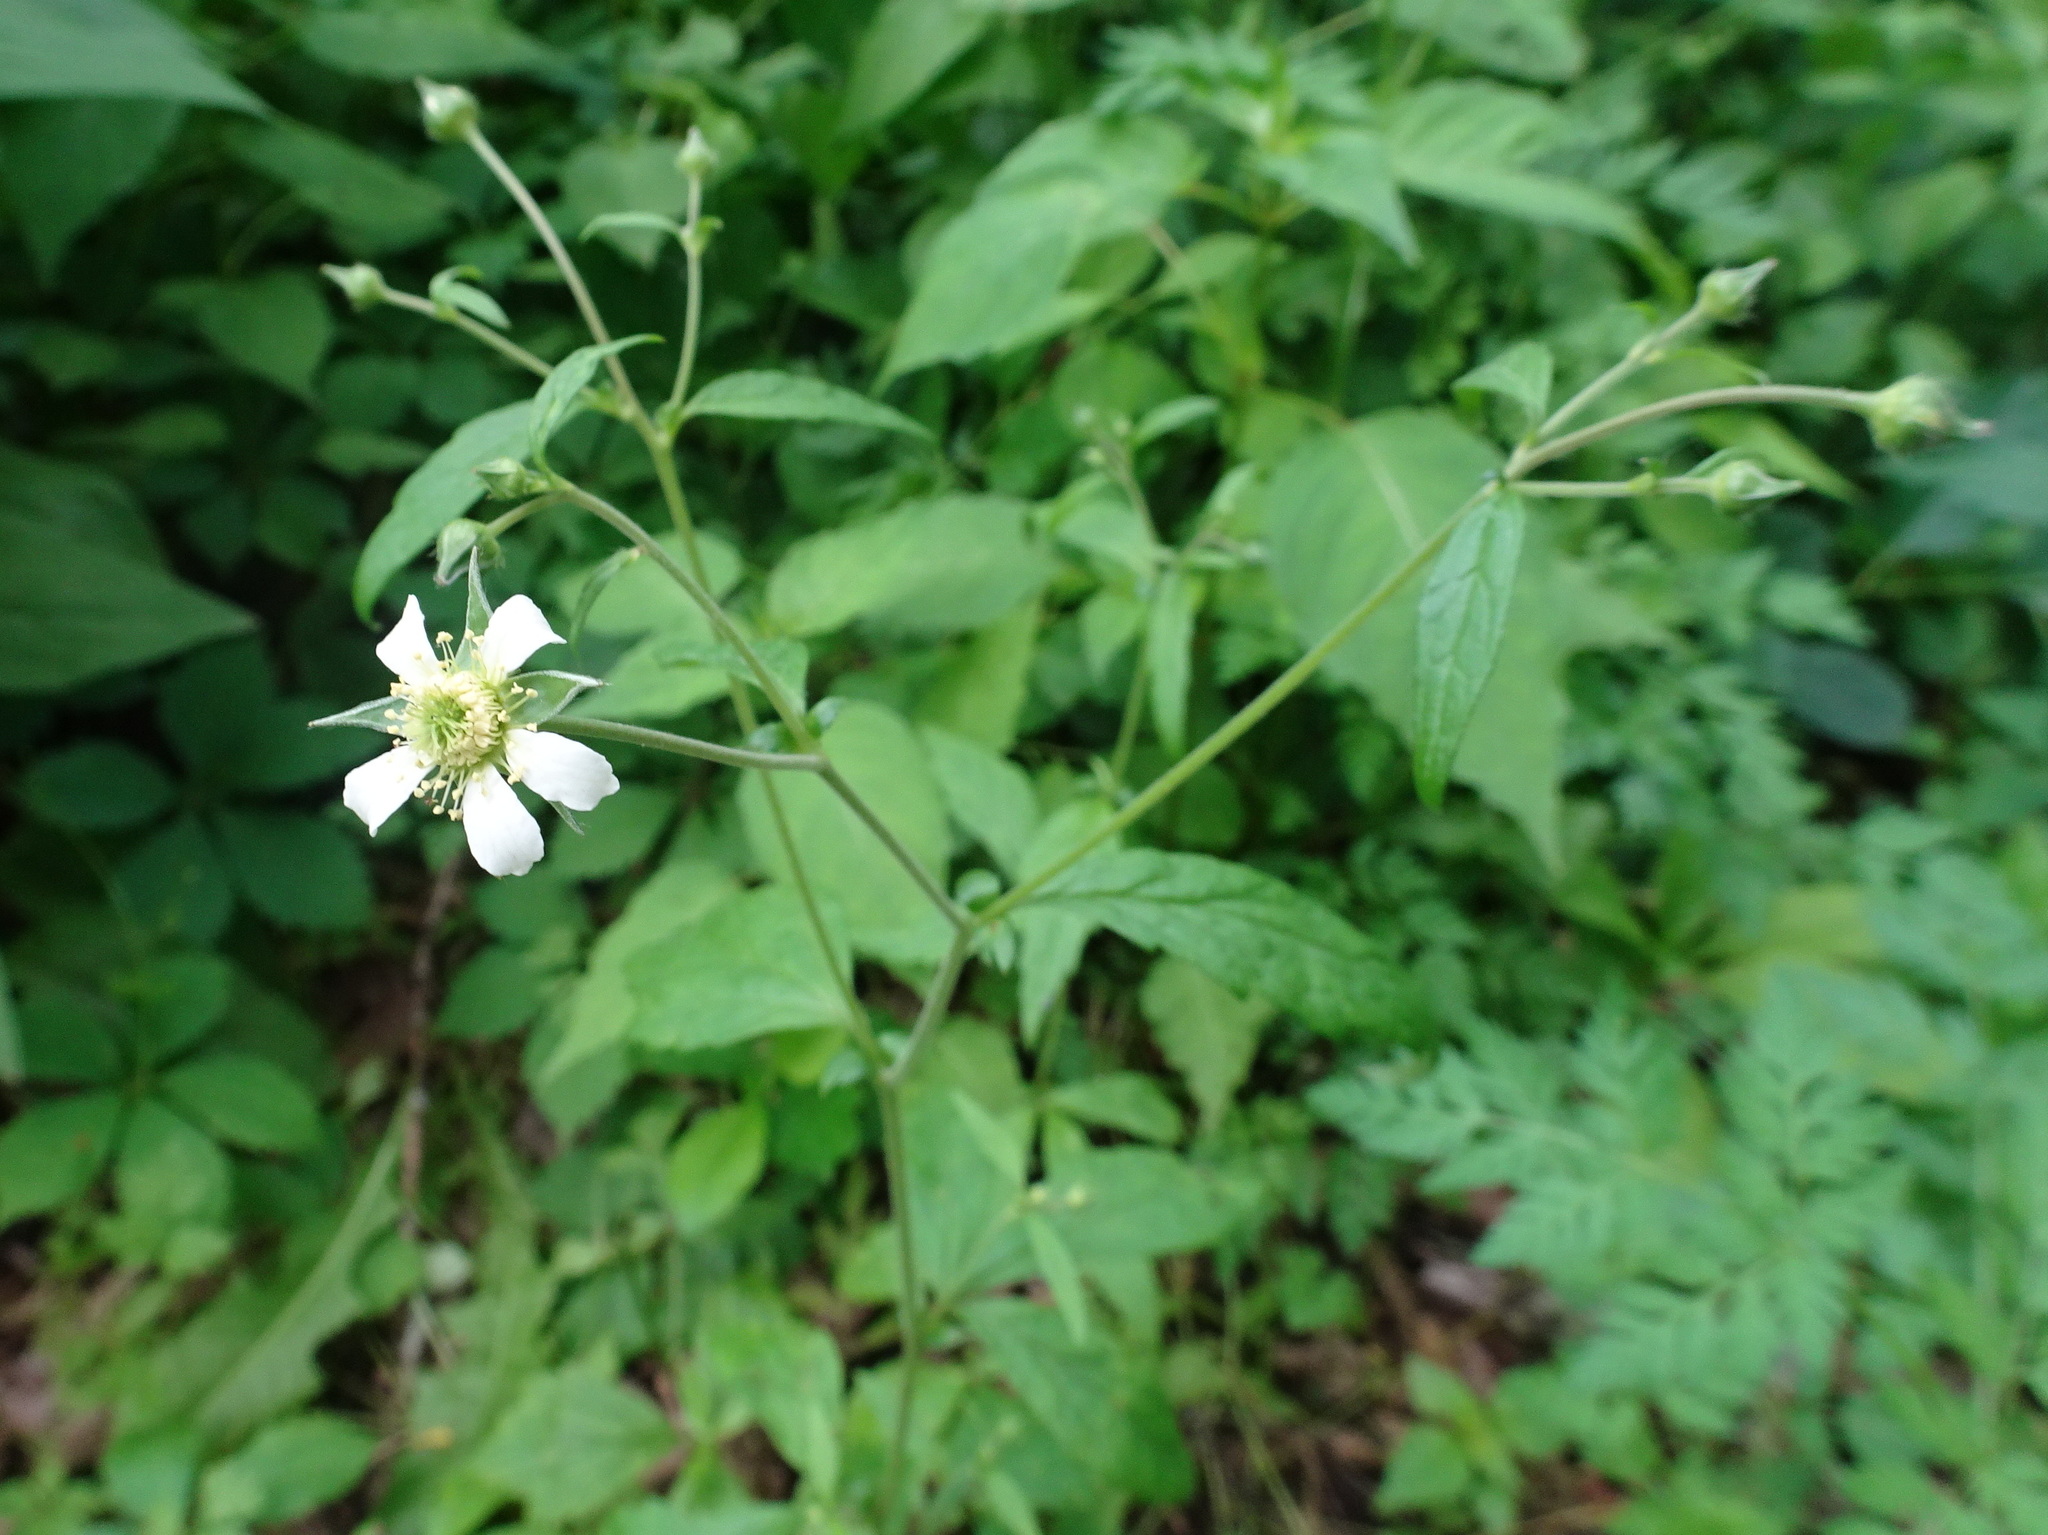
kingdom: Plantae
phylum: Tracheophyta
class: Magnoliopsida
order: Rosales
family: Rosaceae
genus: Geum
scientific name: Geum canadense
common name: White avens
